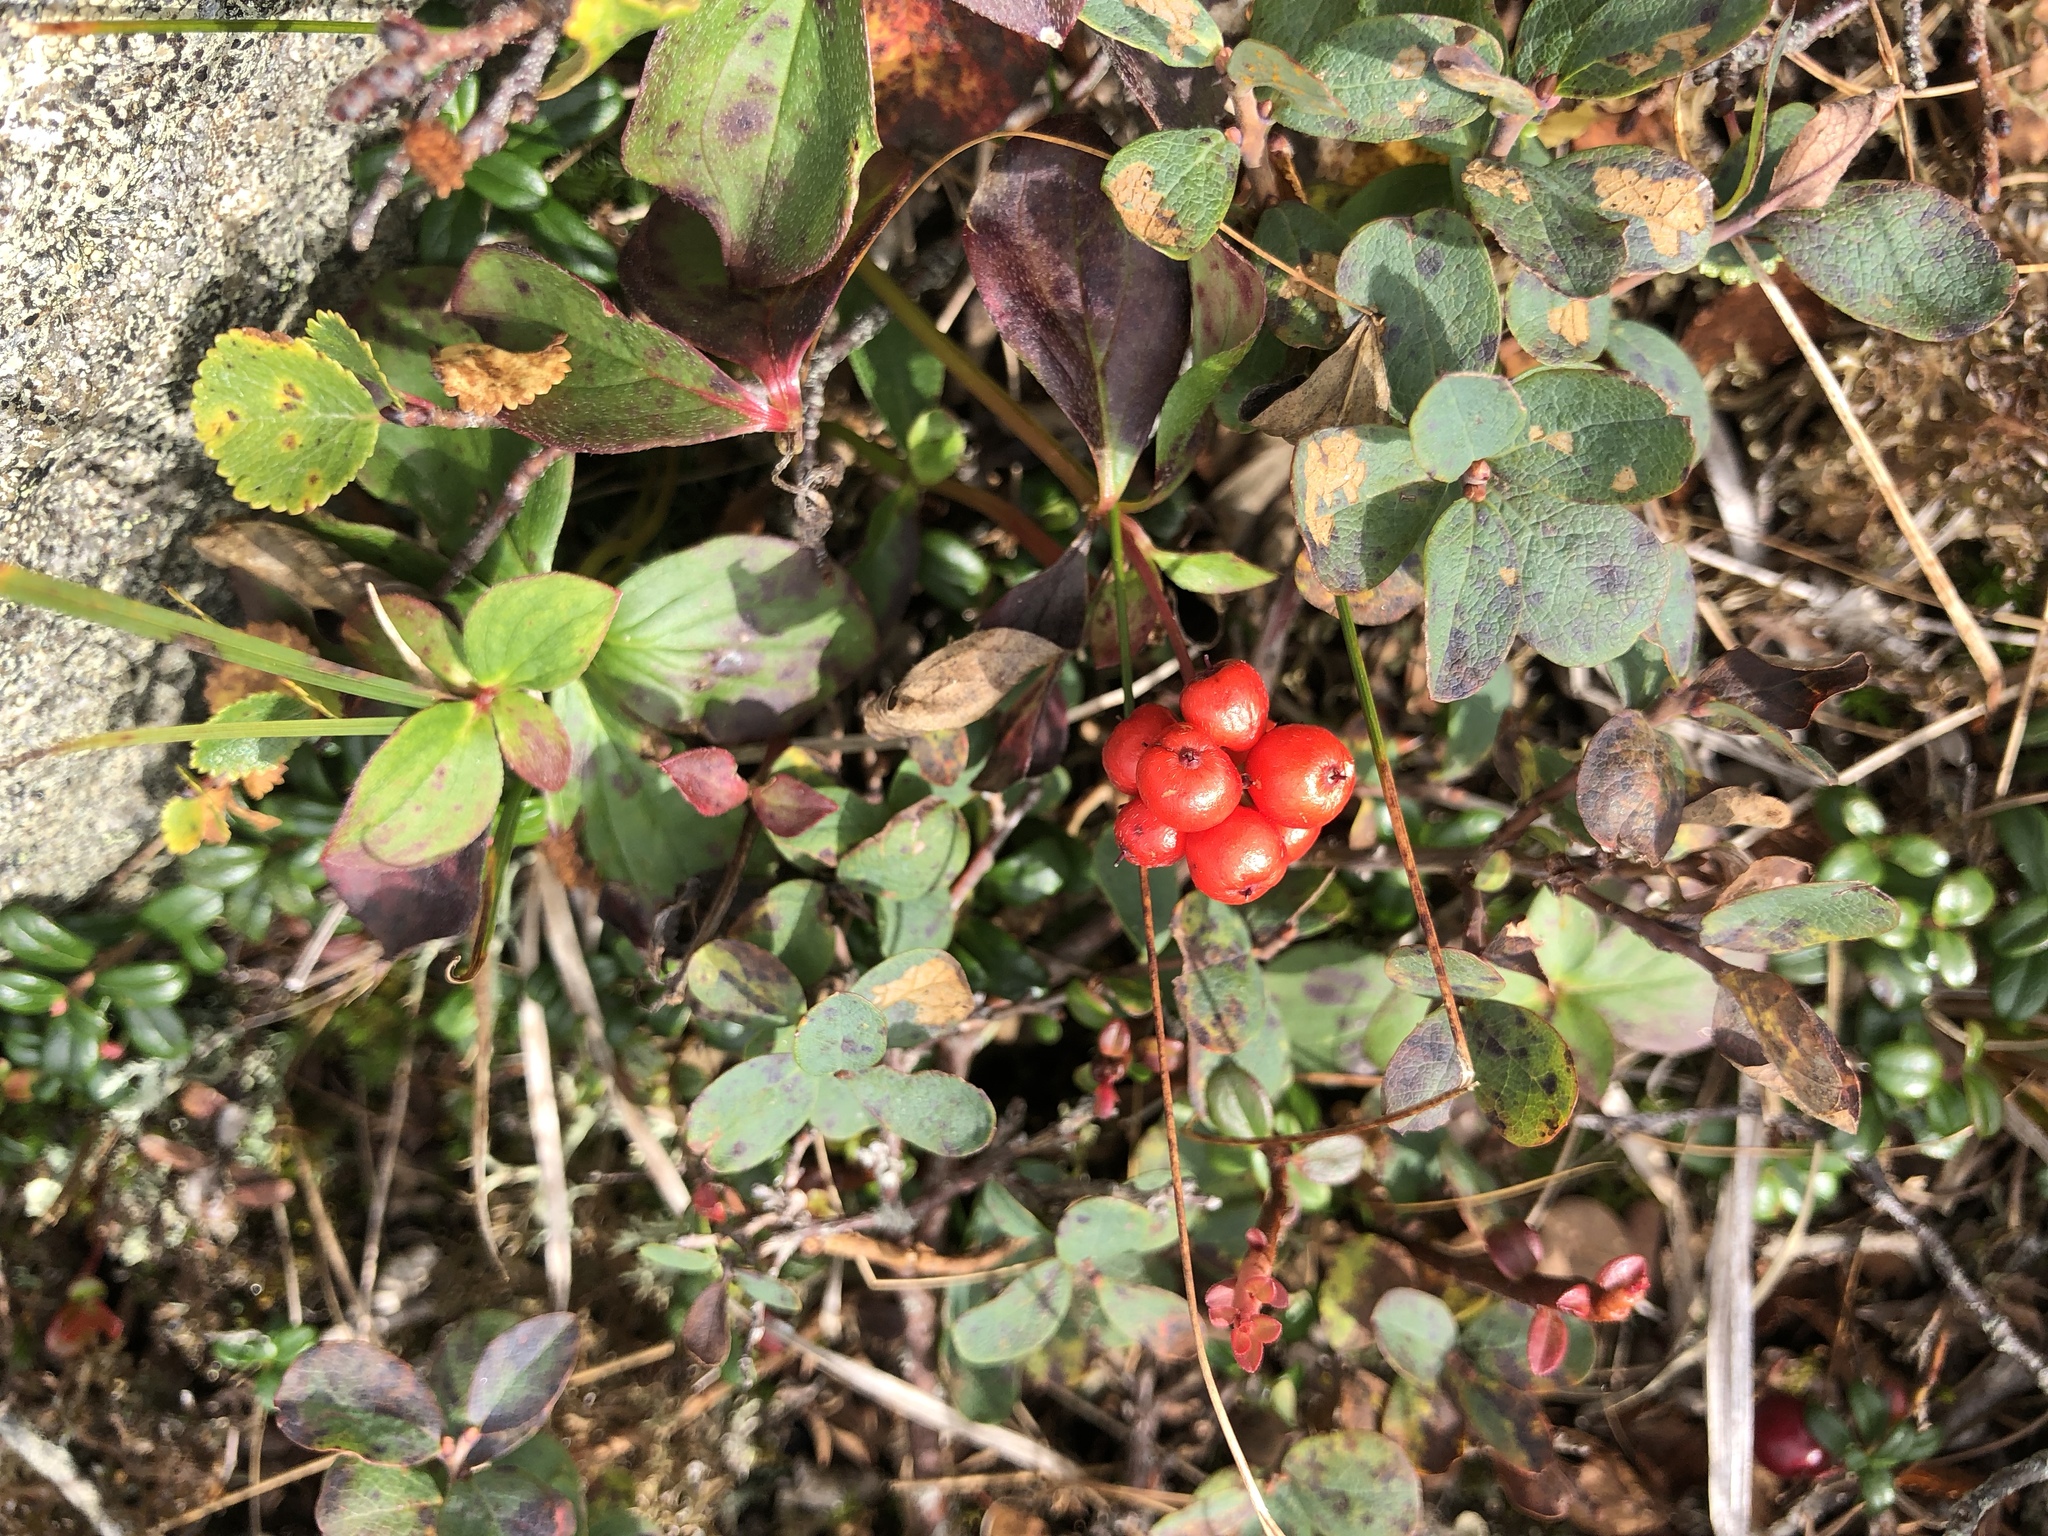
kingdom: Plantae
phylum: Tracheophyta
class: Magnoliopsida
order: Cornales
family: Cornaceae
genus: Cornus
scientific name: Cornus canadensis
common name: Creeping dogwood
